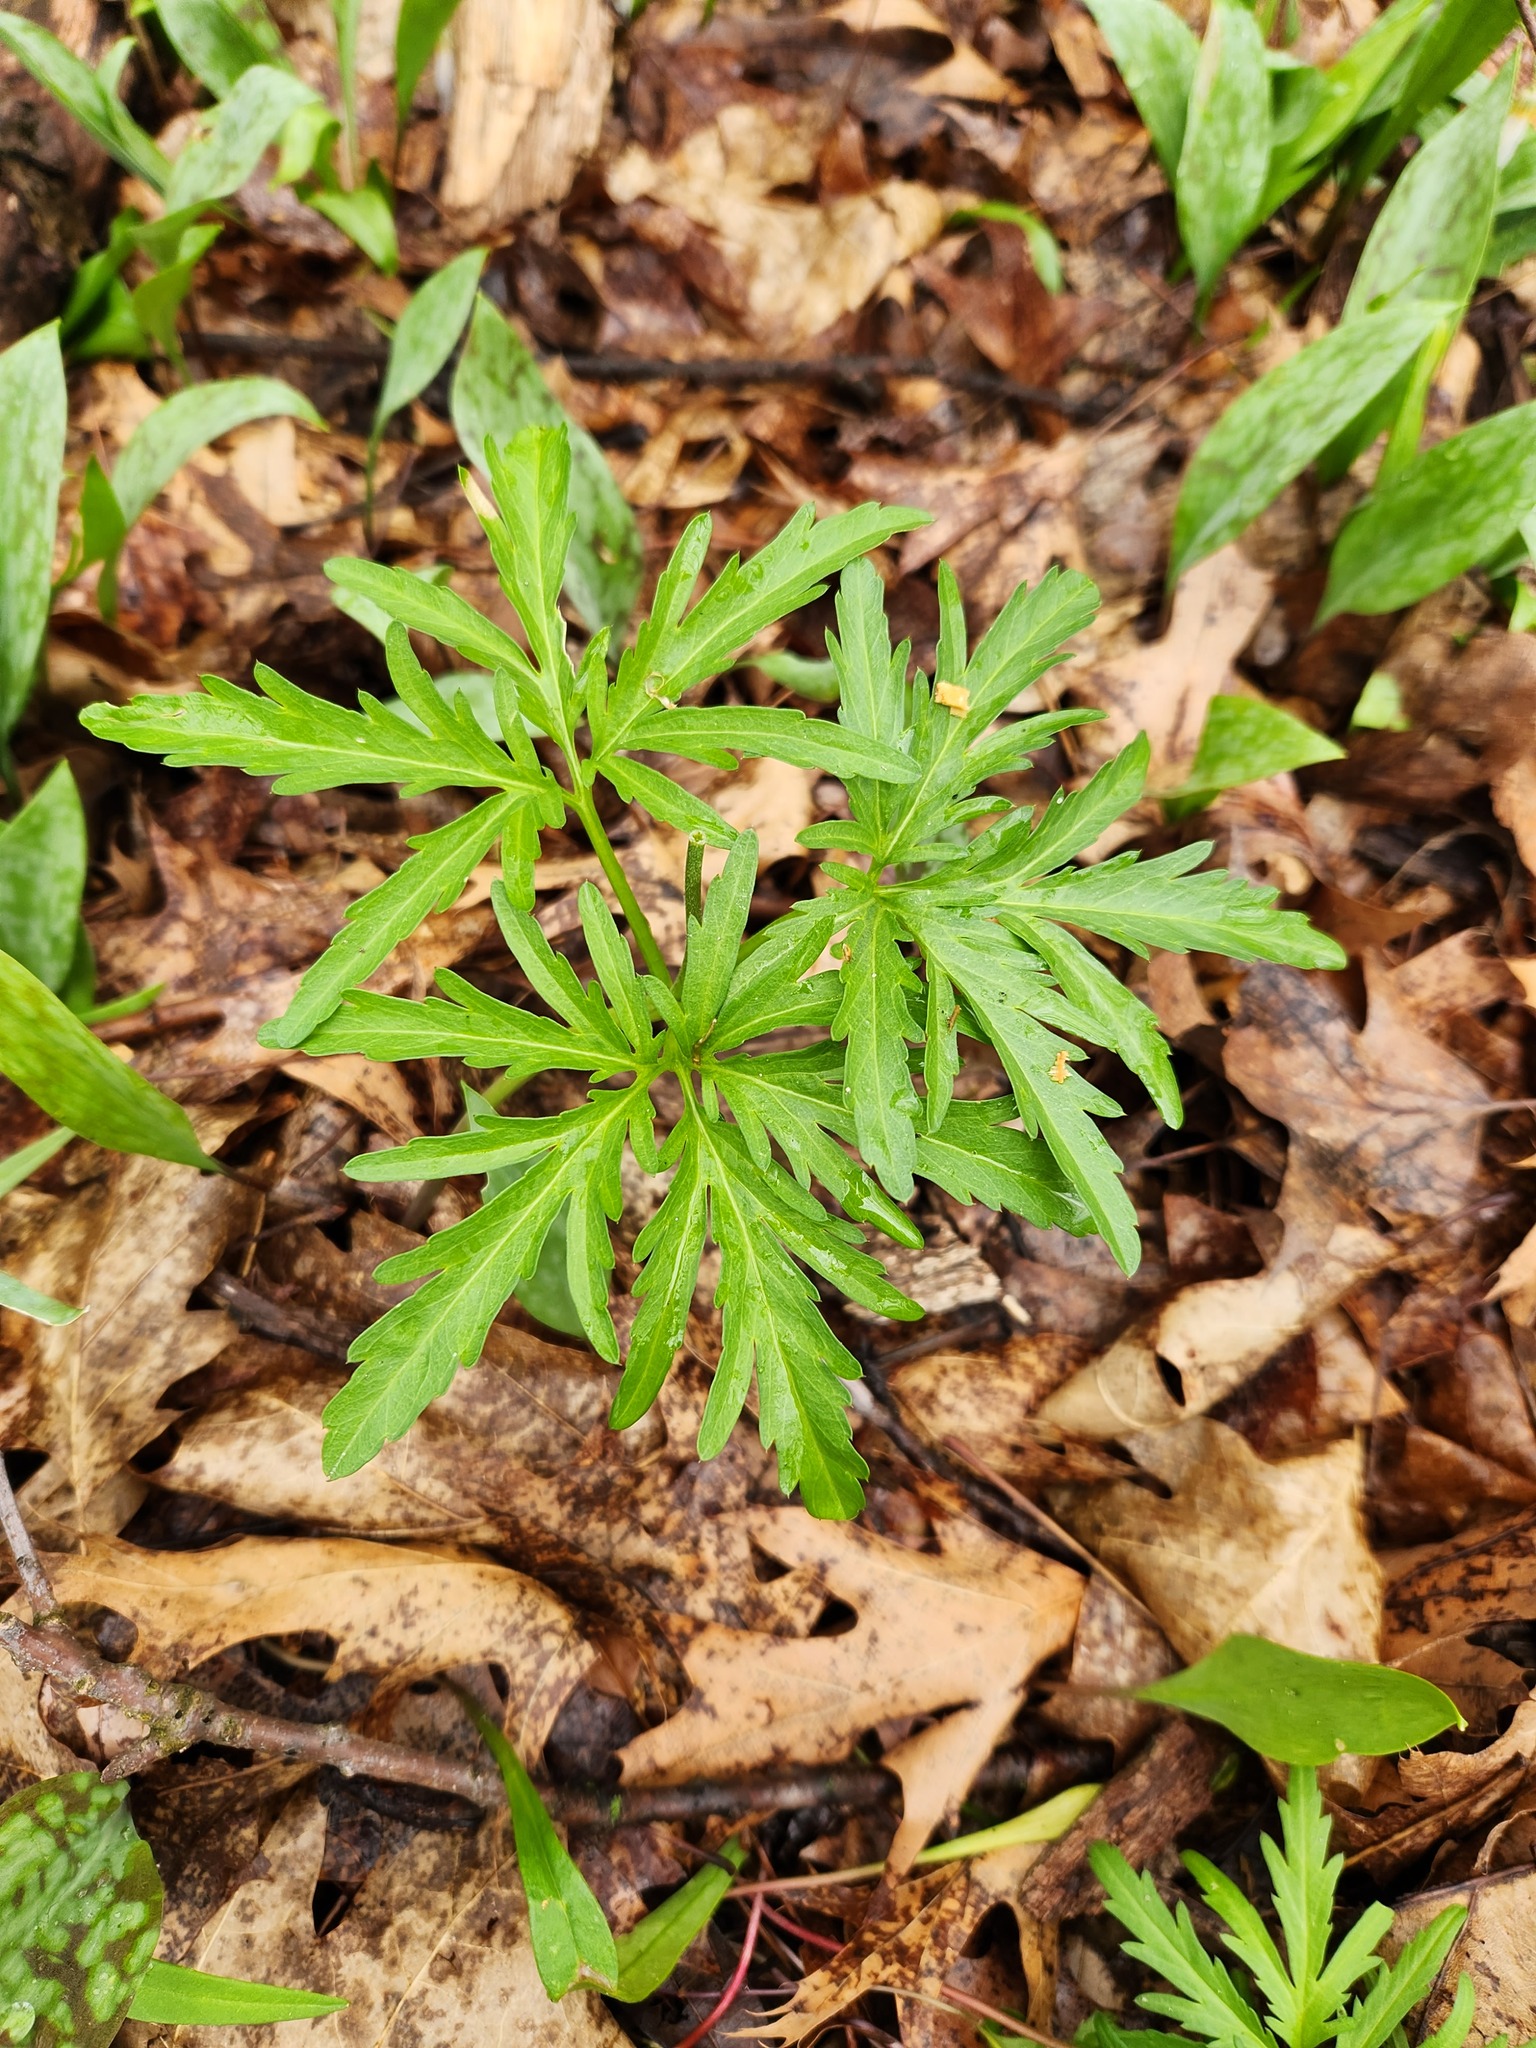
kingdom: Plantae
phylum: Tracheophyta
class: Magnoliopsida
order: Brassicales
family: Brassicaceae
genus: Cardamine
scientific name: Cardamine concatenata
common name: Cut-leaf toothcup
